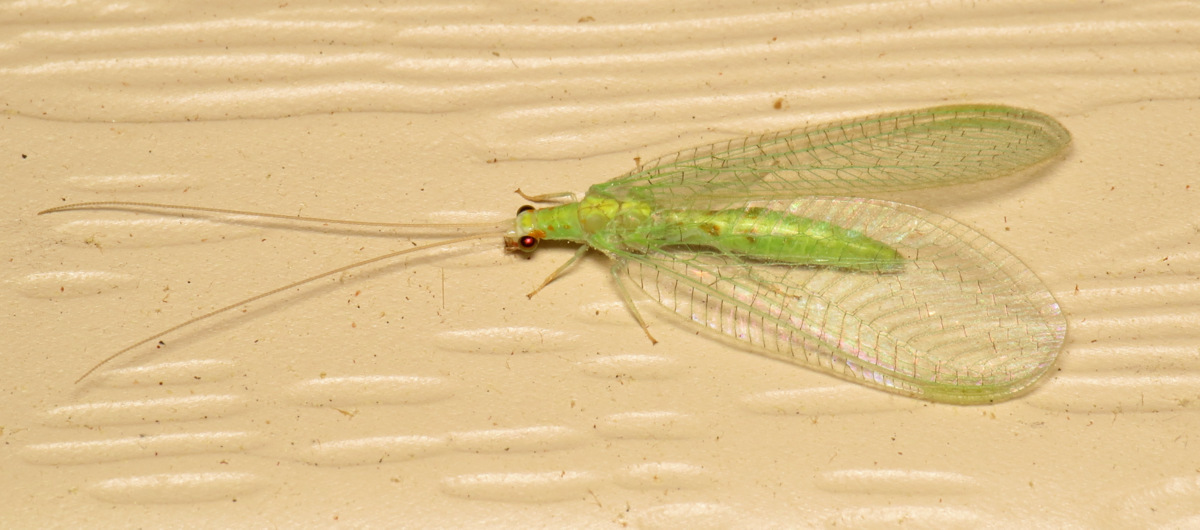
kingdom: Animalia
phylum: Arthropoda
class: Insecta
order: Neuroptera
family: Chrysopidae
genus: Chrysopa
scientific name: Chrysopa quadripunctata
